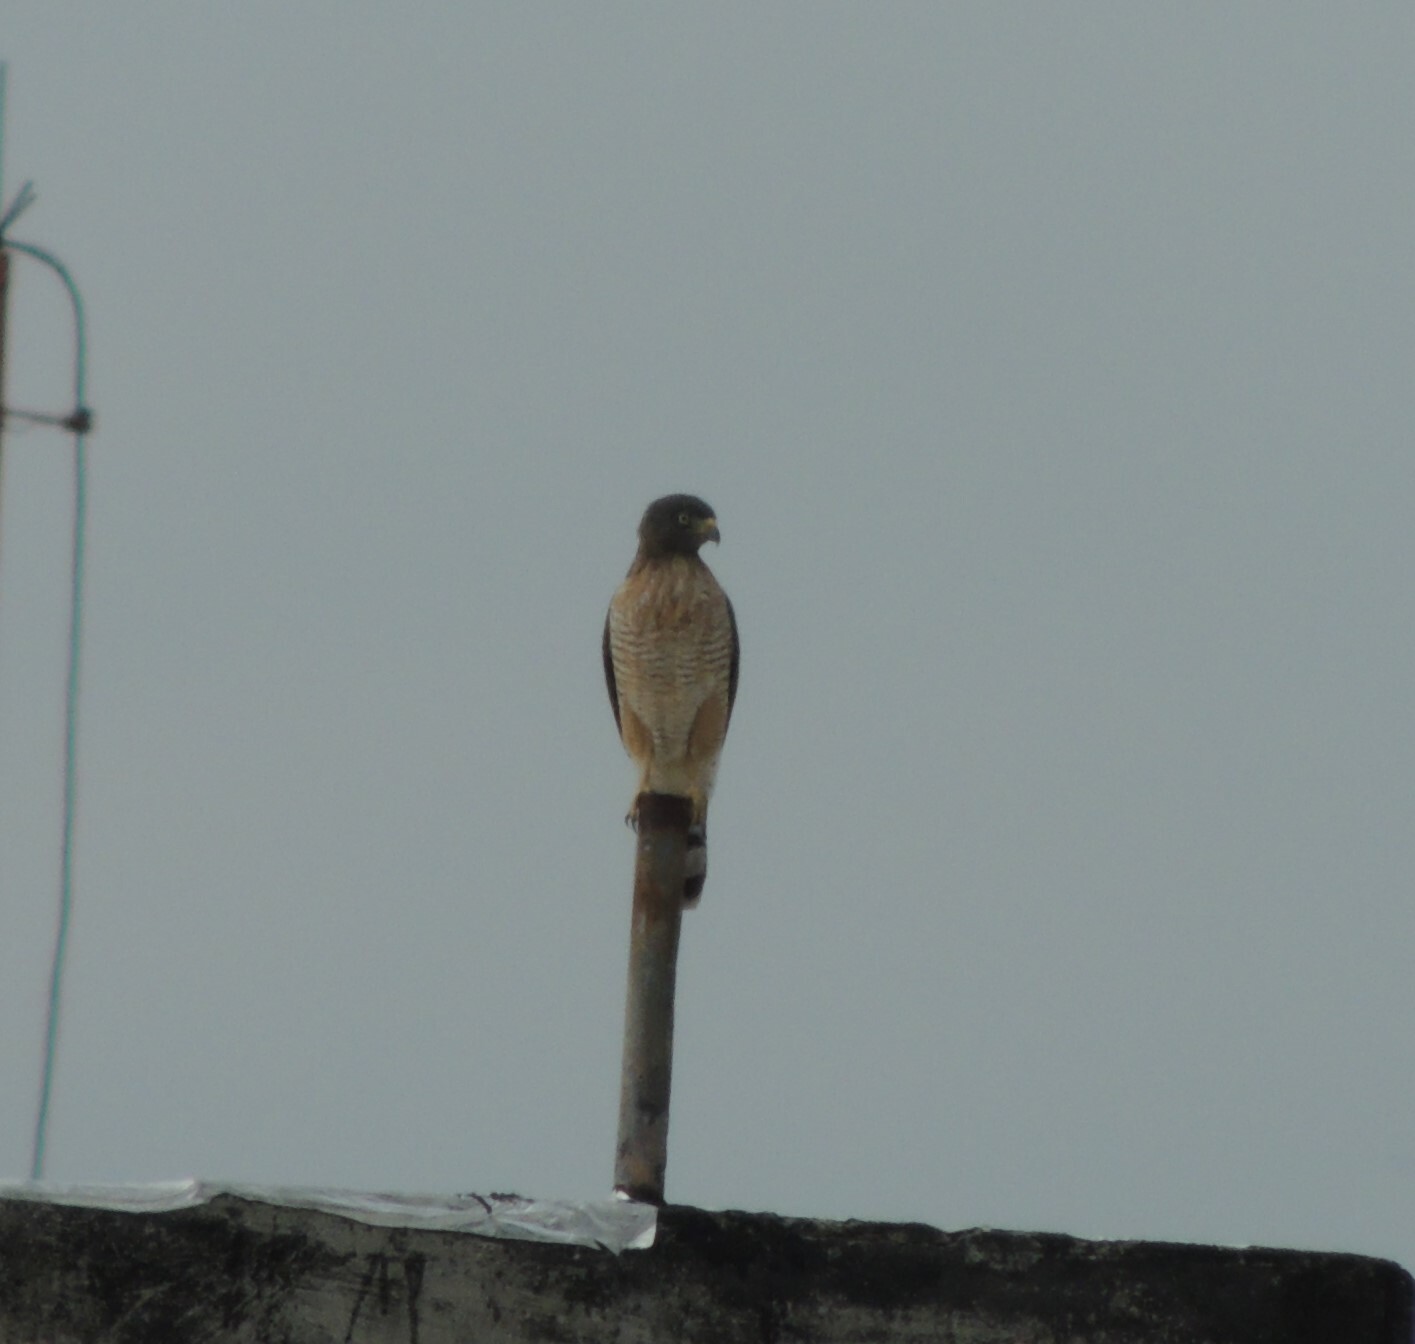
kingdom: Animalia
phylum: Chordata
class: Aves
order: Accipitriformes
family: Accipitridae
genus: Rupornis
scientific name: Rupornis magnirostris
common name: Roadside hawk
